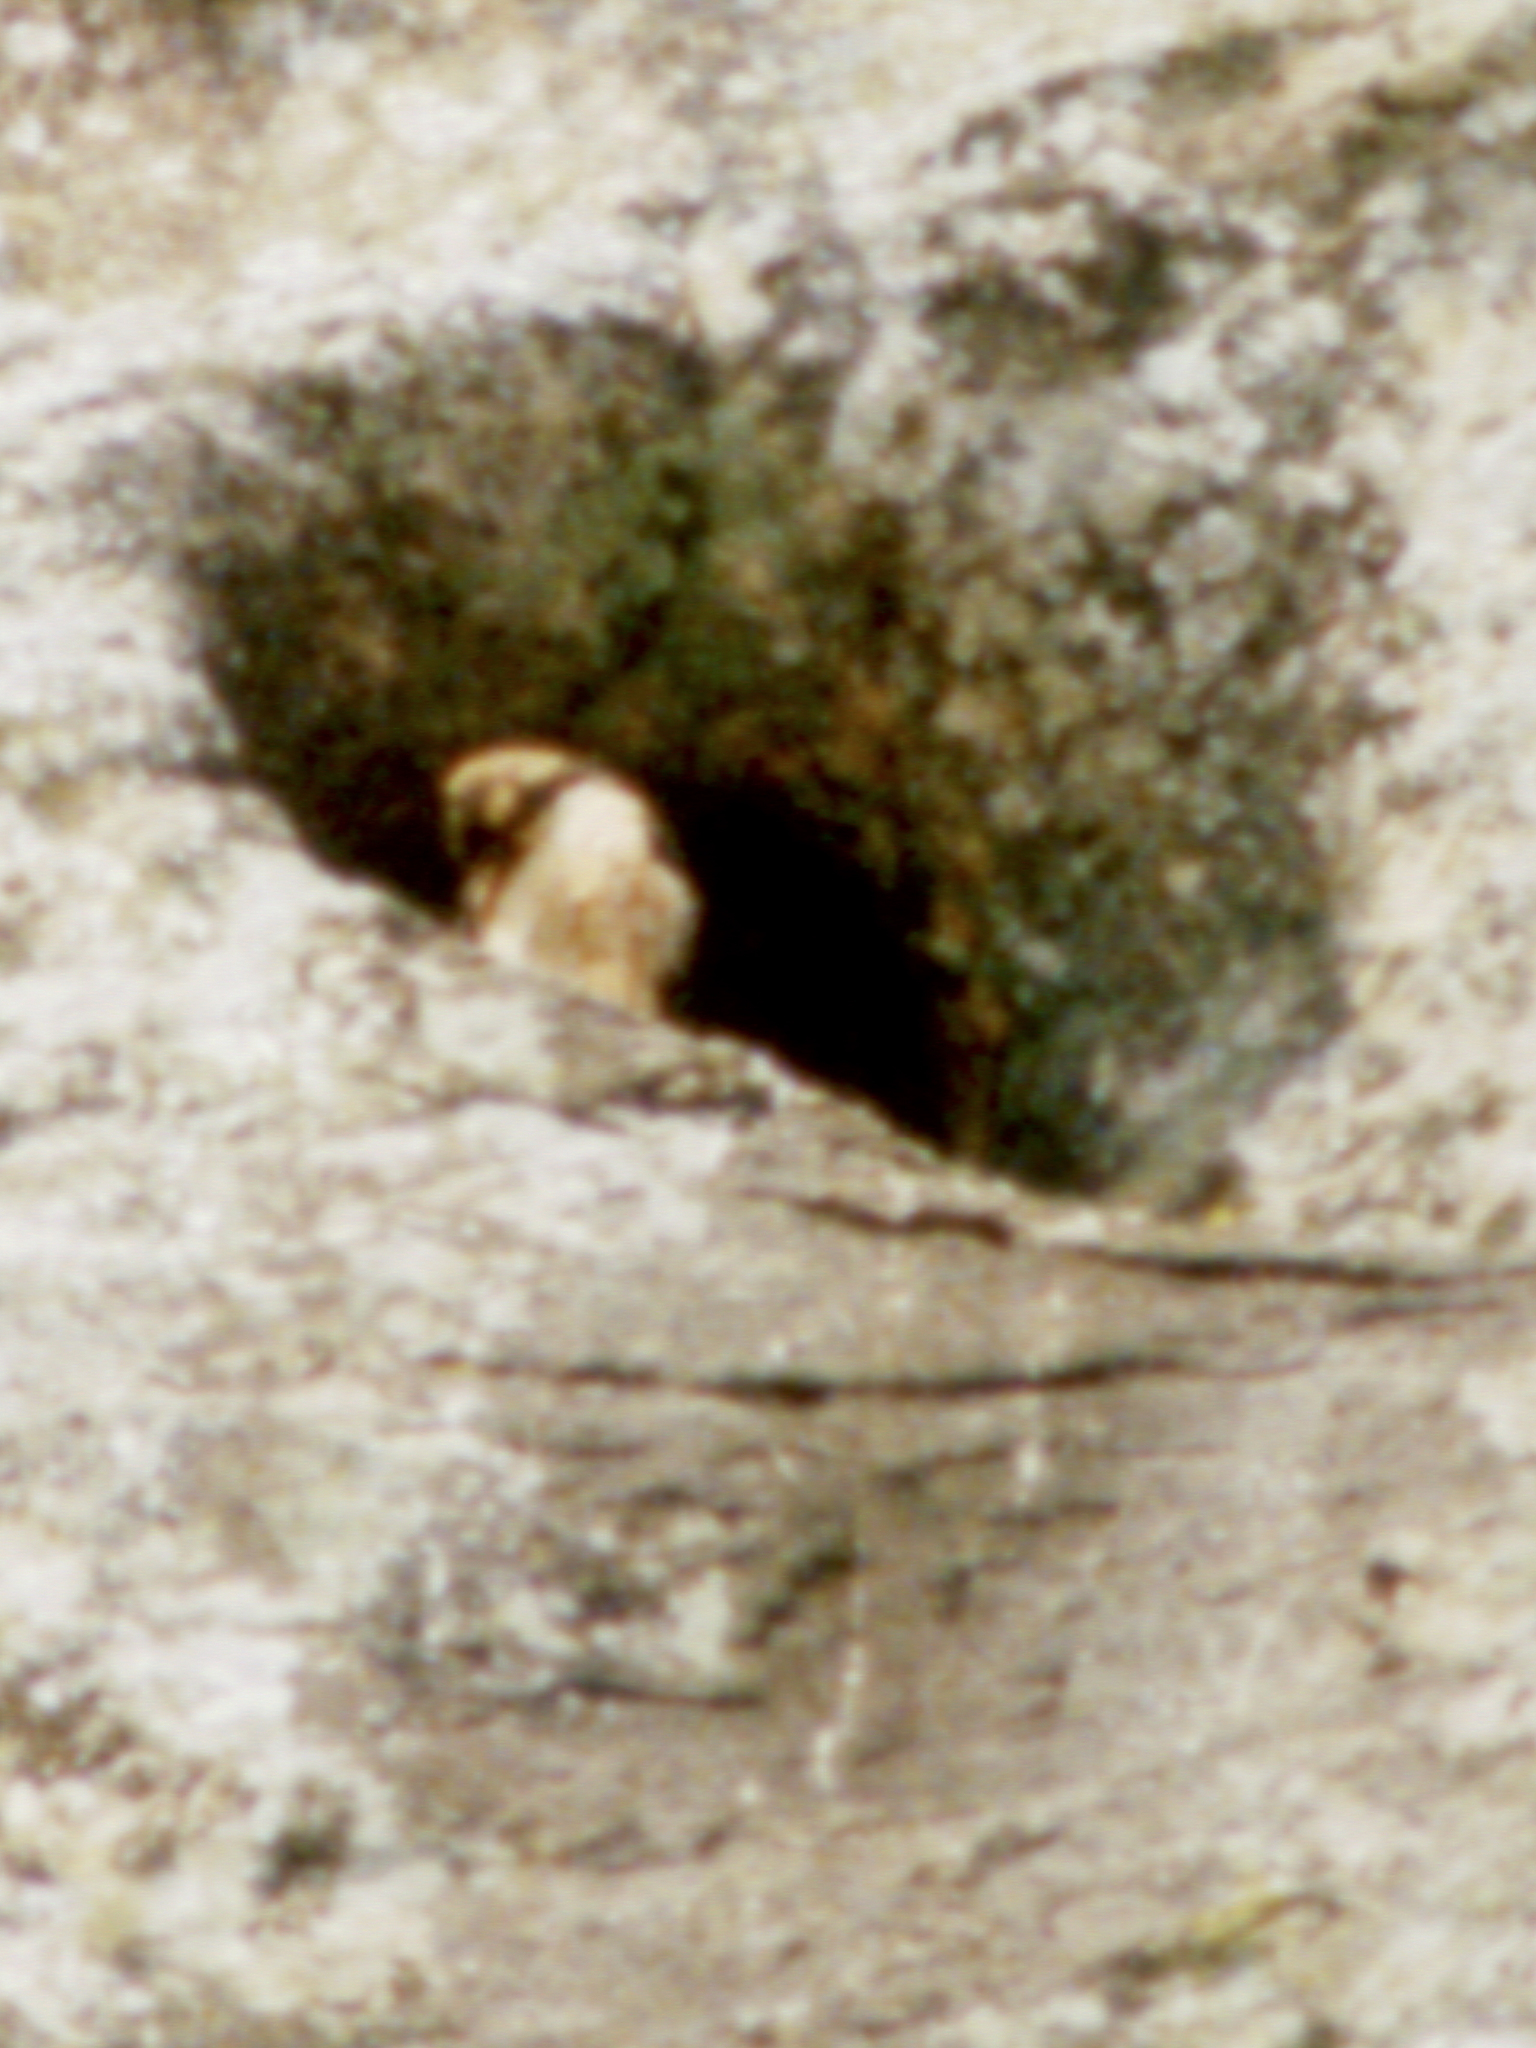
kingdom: Animalia
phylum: Chordata
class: Aves
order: Falconiformes
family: Falconidae
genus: Falco
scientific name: Falco fasciinucha
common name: Taita falcon
